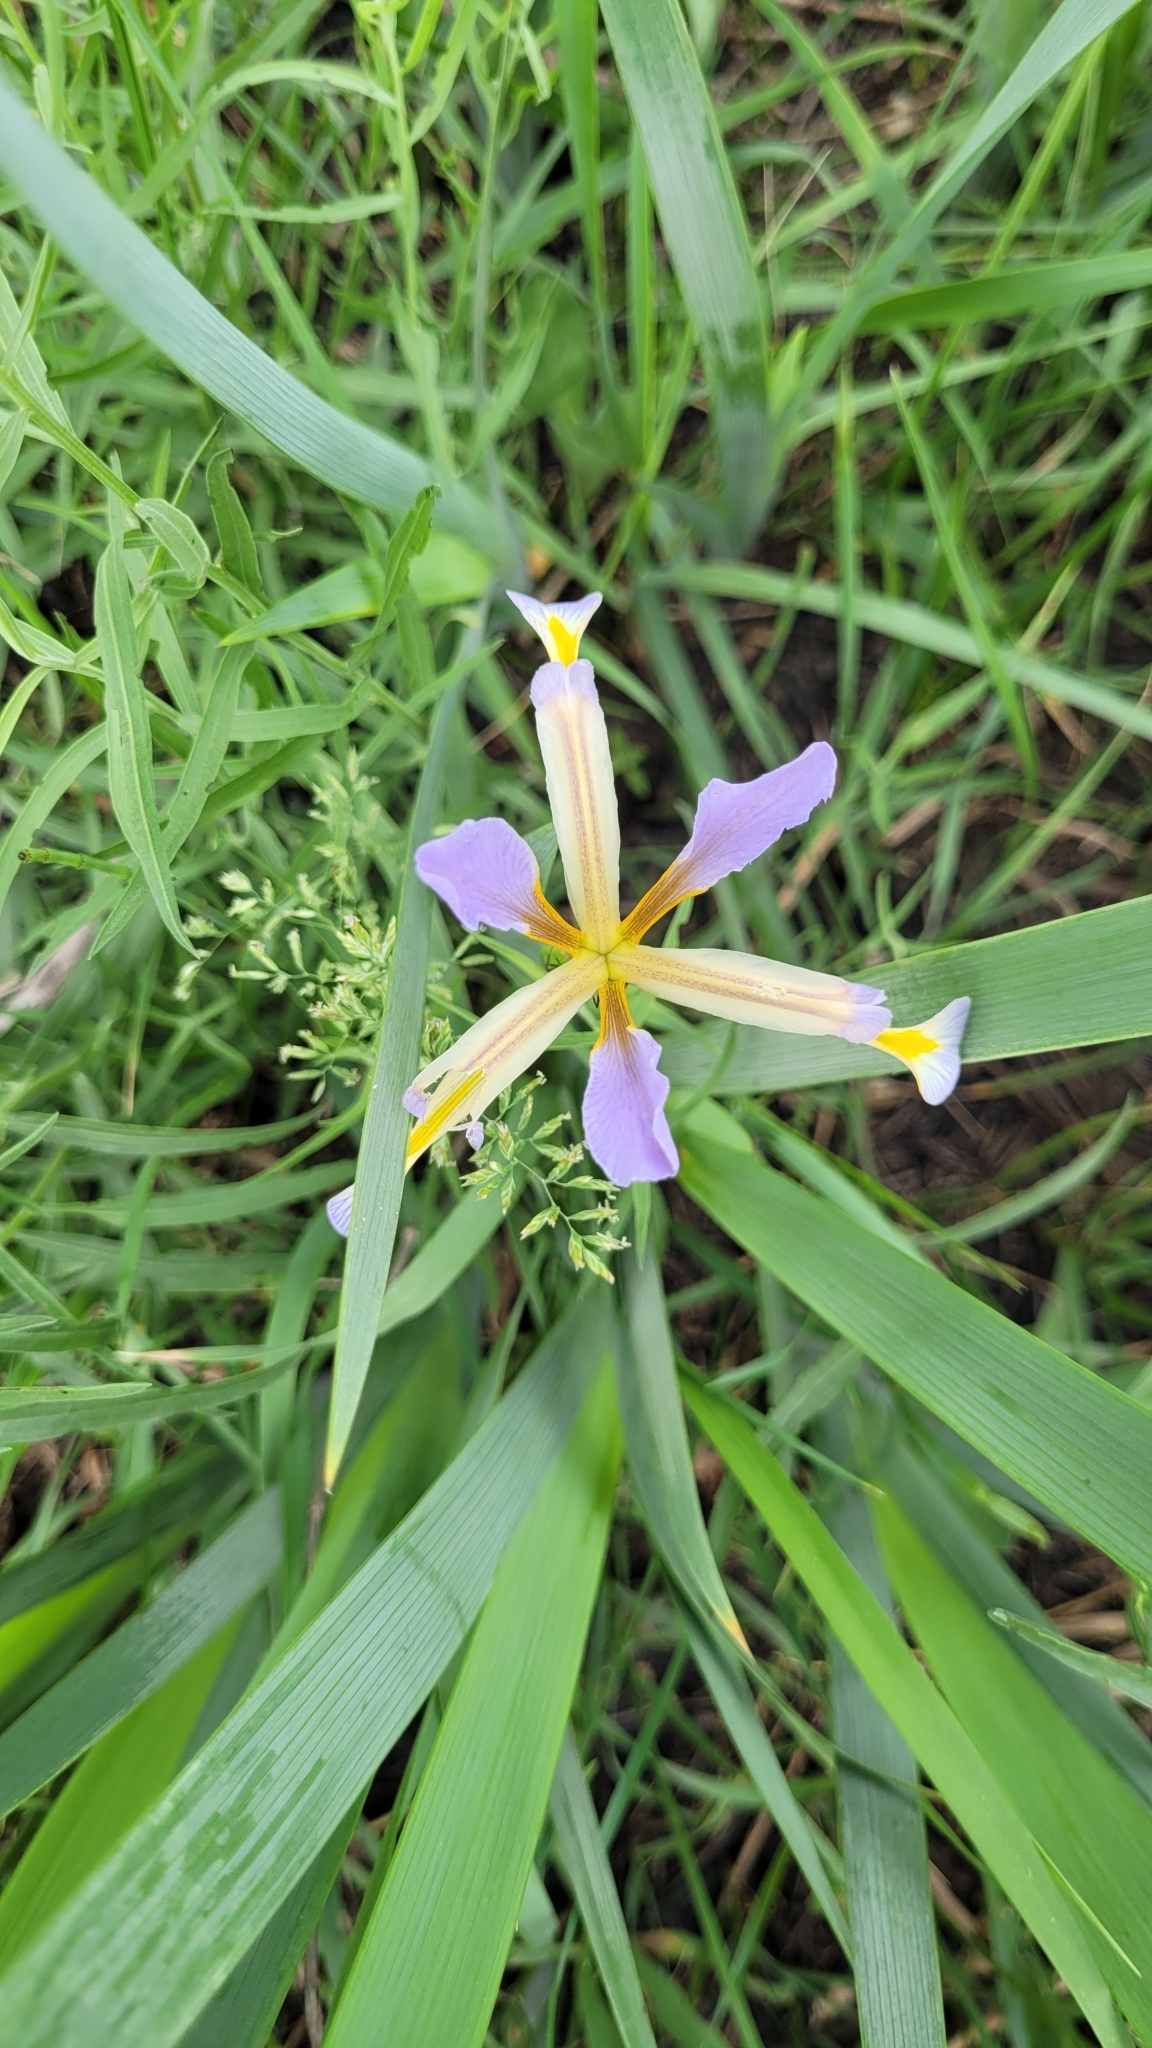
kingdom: Plantae
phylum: Tracheophyta
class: Liliopsida
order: Asparagales
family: Iridaceae
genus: Iris
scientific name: Iris halophila
